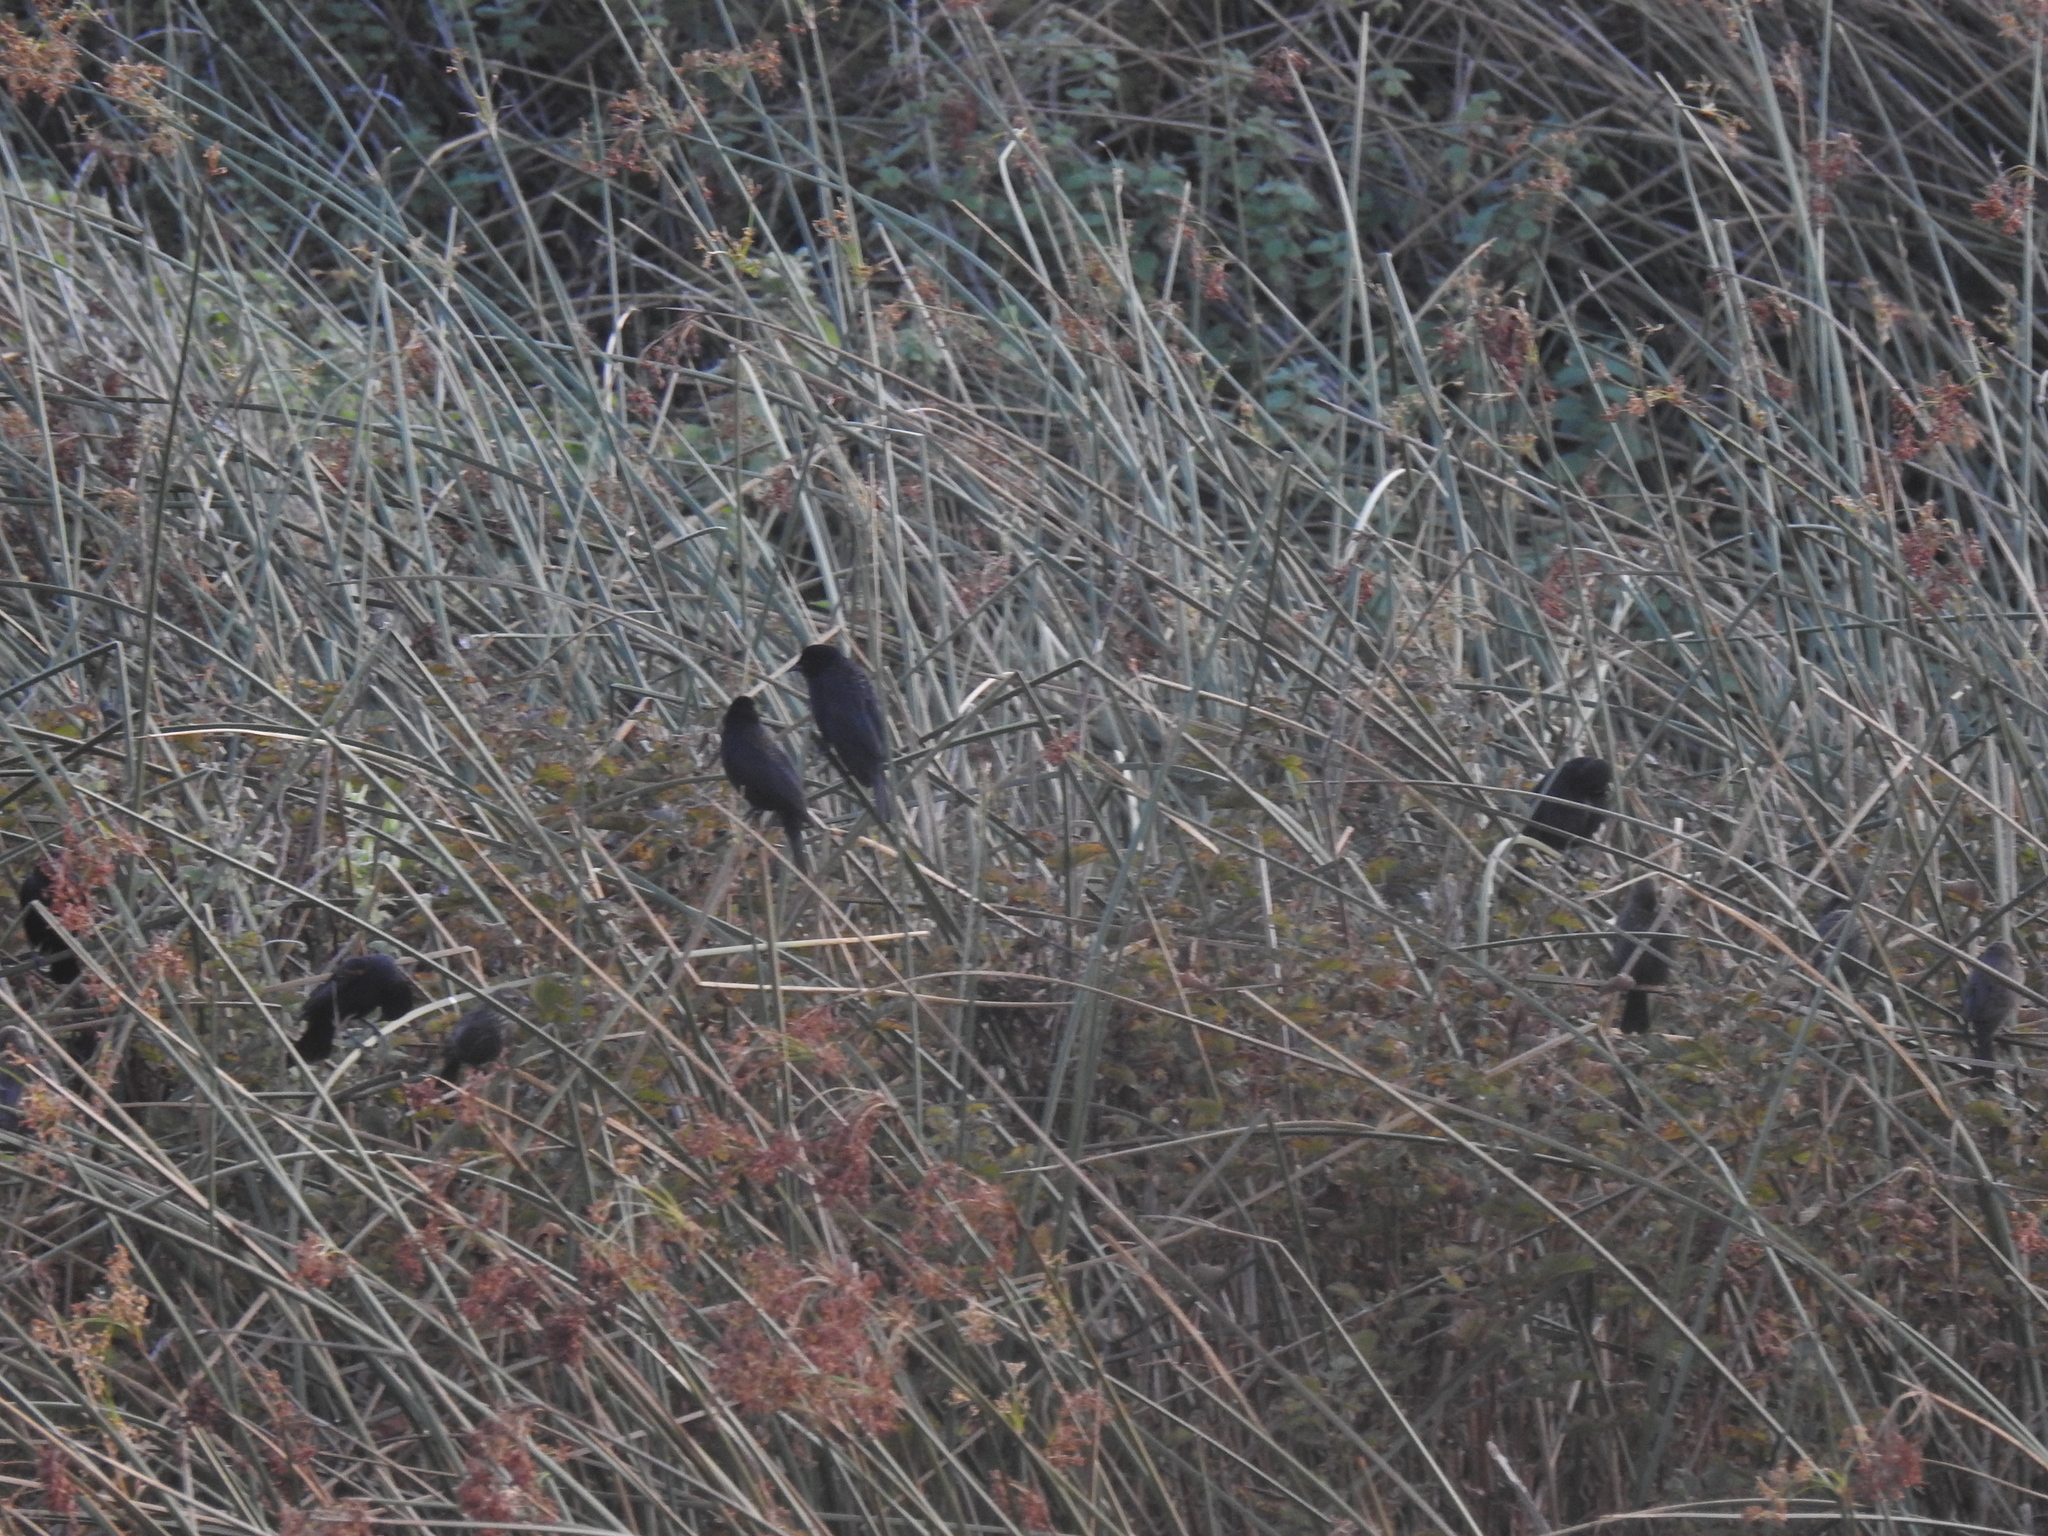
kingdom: Animalia
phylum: Chordata
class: Aves
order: Passeriformes
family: Icteridae
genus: Agelaius
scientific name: Agelaius tricolor
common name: Tricolored blackbird
